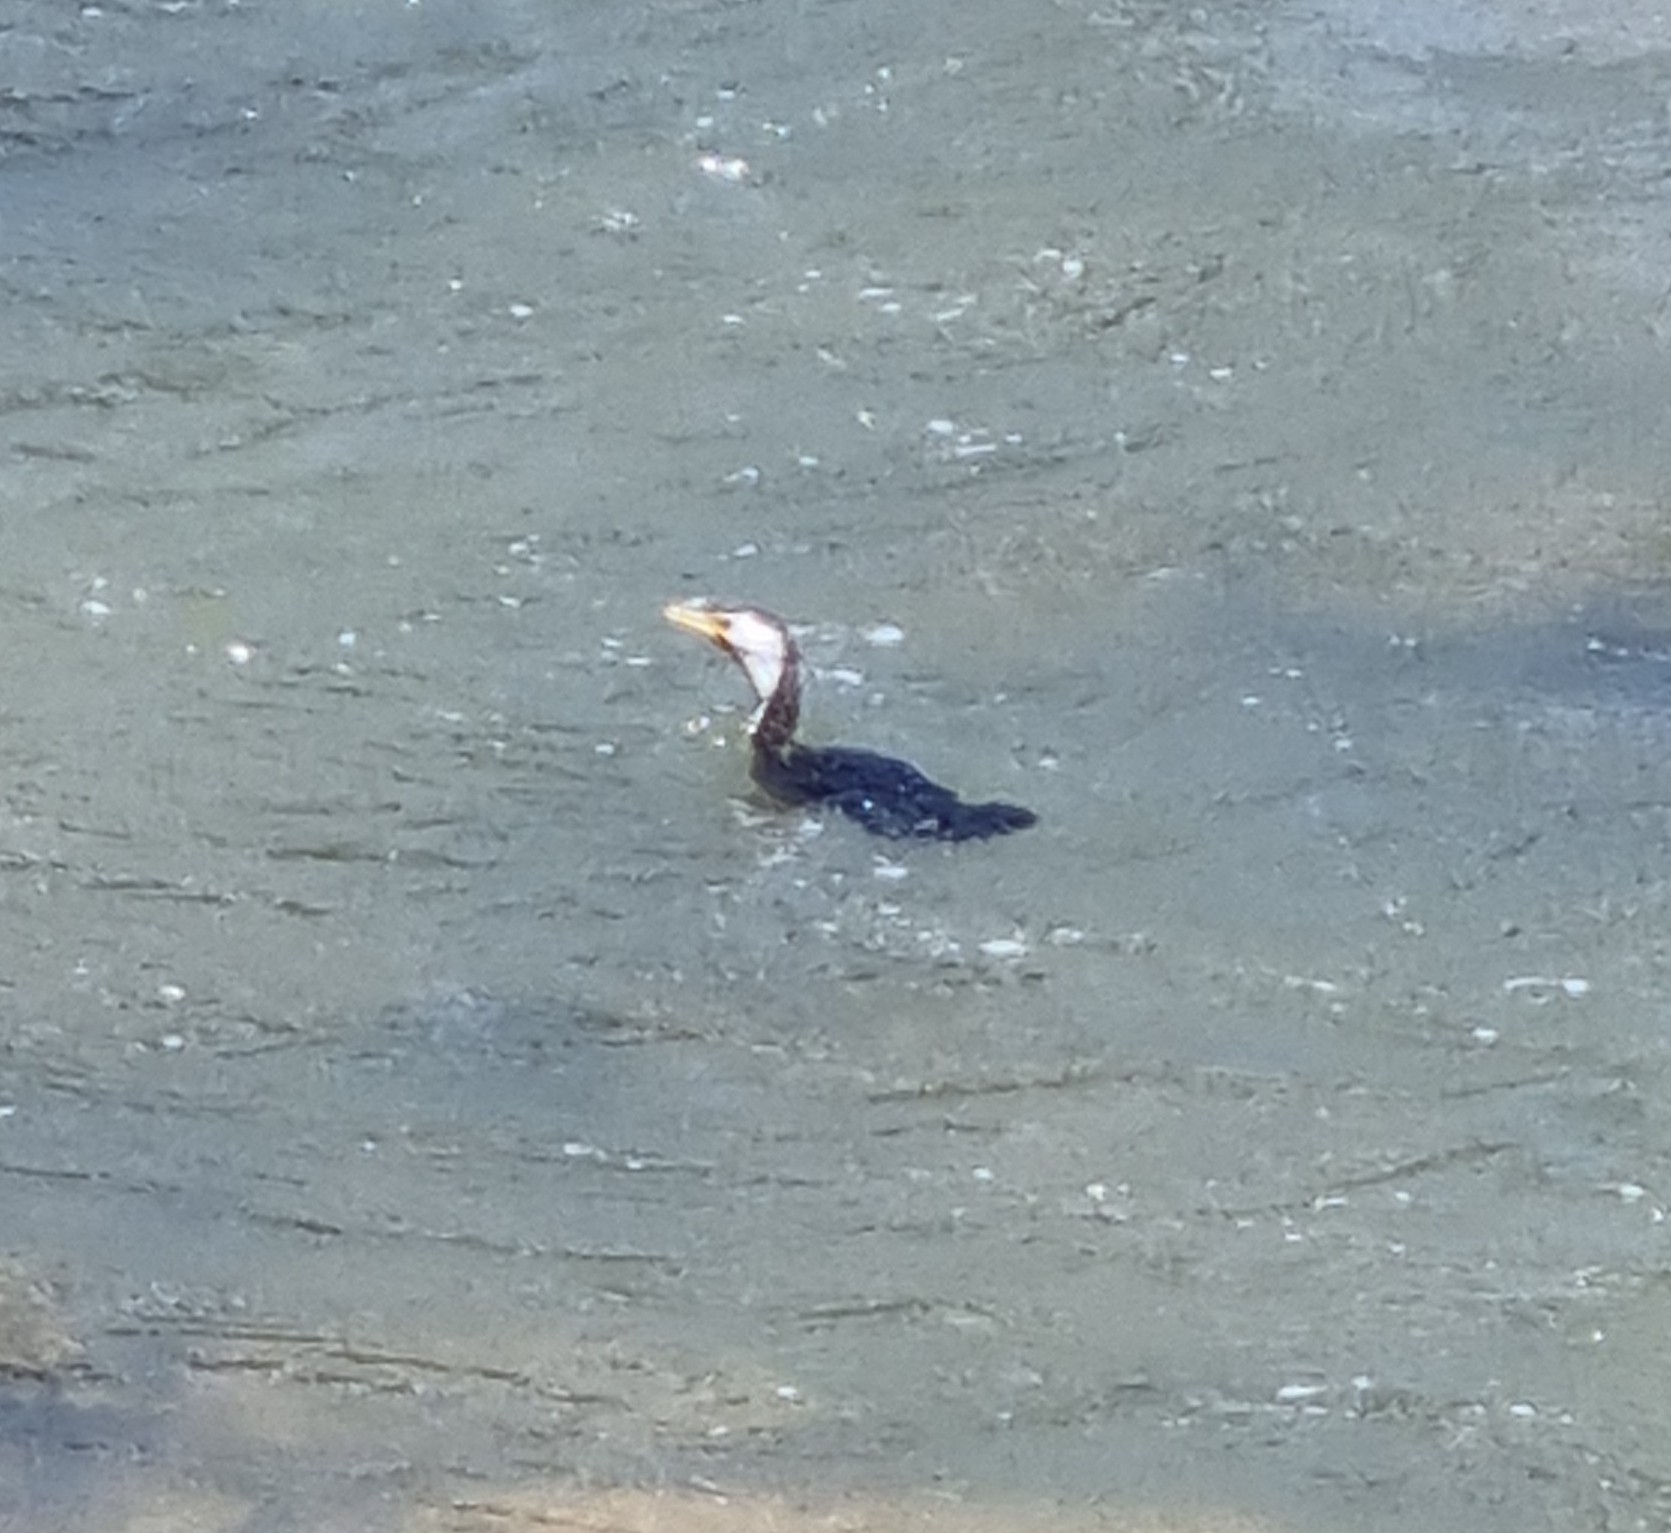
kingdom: Animalia
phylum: Chordata
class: Aves
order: Suliformes
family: Phalacrocoracidae
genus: Microcarbo
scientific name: Microcarbo melanoleucos
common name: Little pied cormorant
